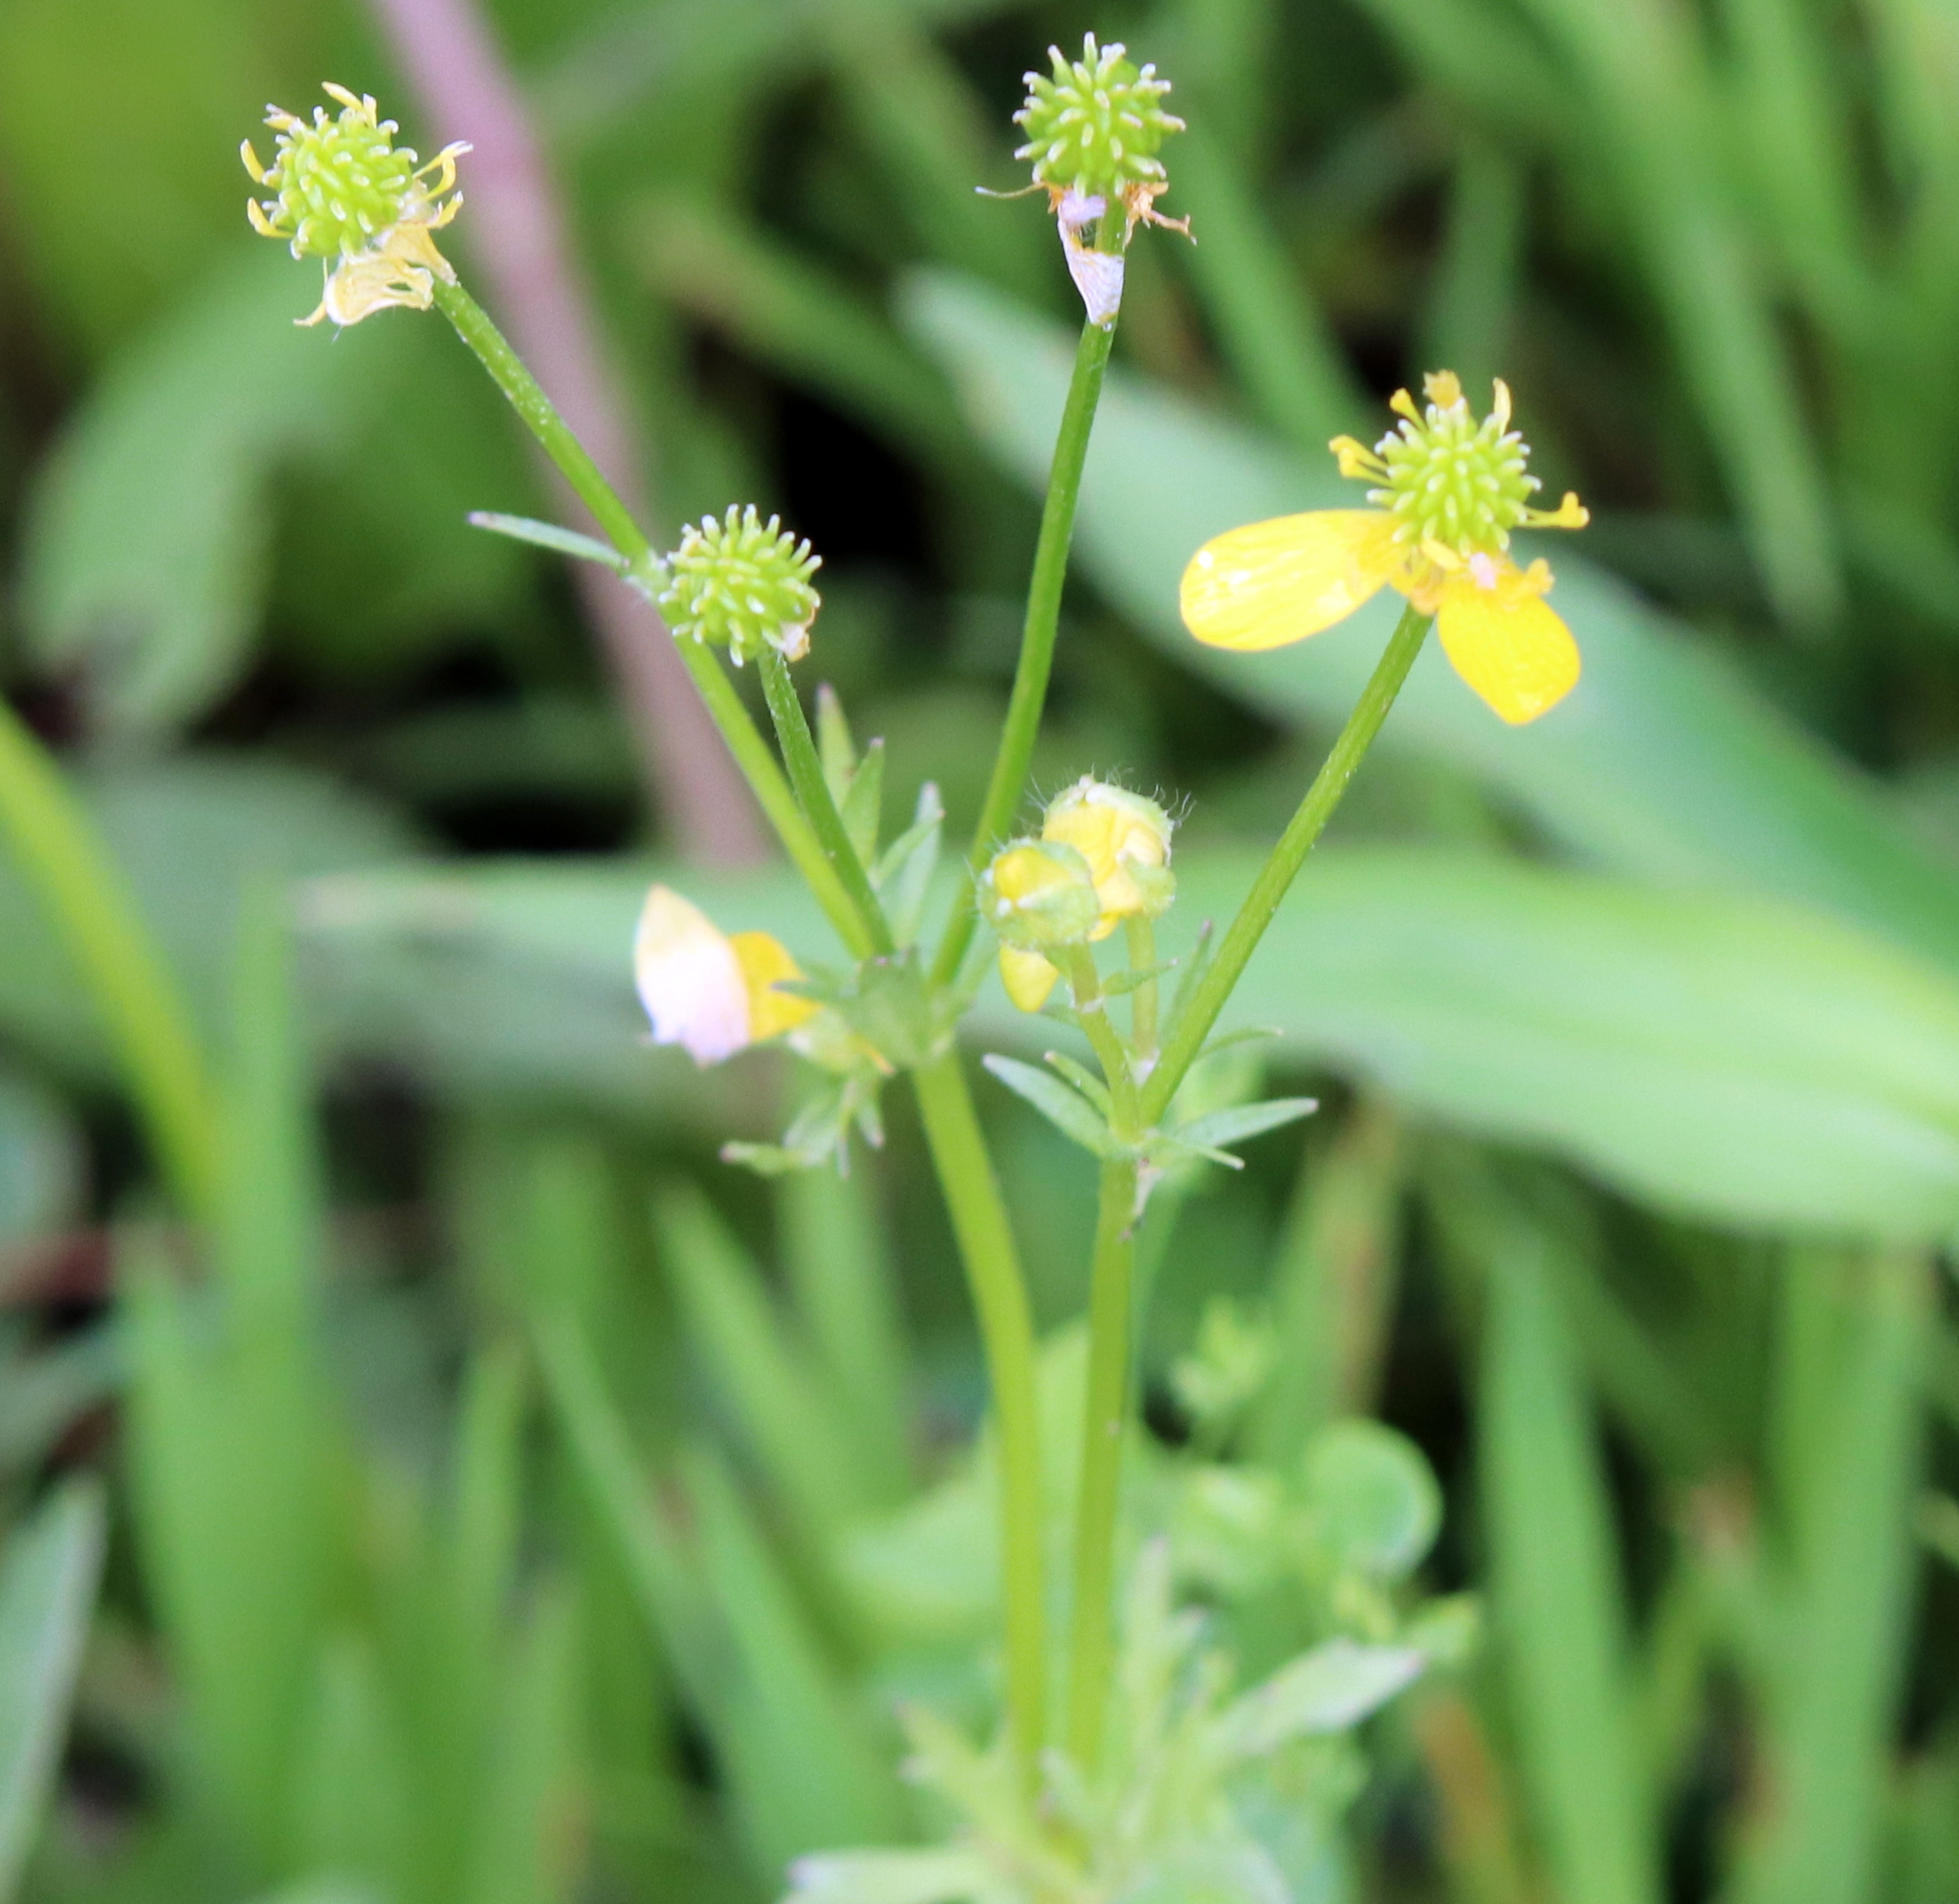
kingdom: Plantae
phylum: Tracheophyta
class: Magnoliopsida
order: Ranunculales
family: Ranunculaceae
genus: Ranunculus
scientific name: Ranunculus sardous
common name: Hairy buttercup
